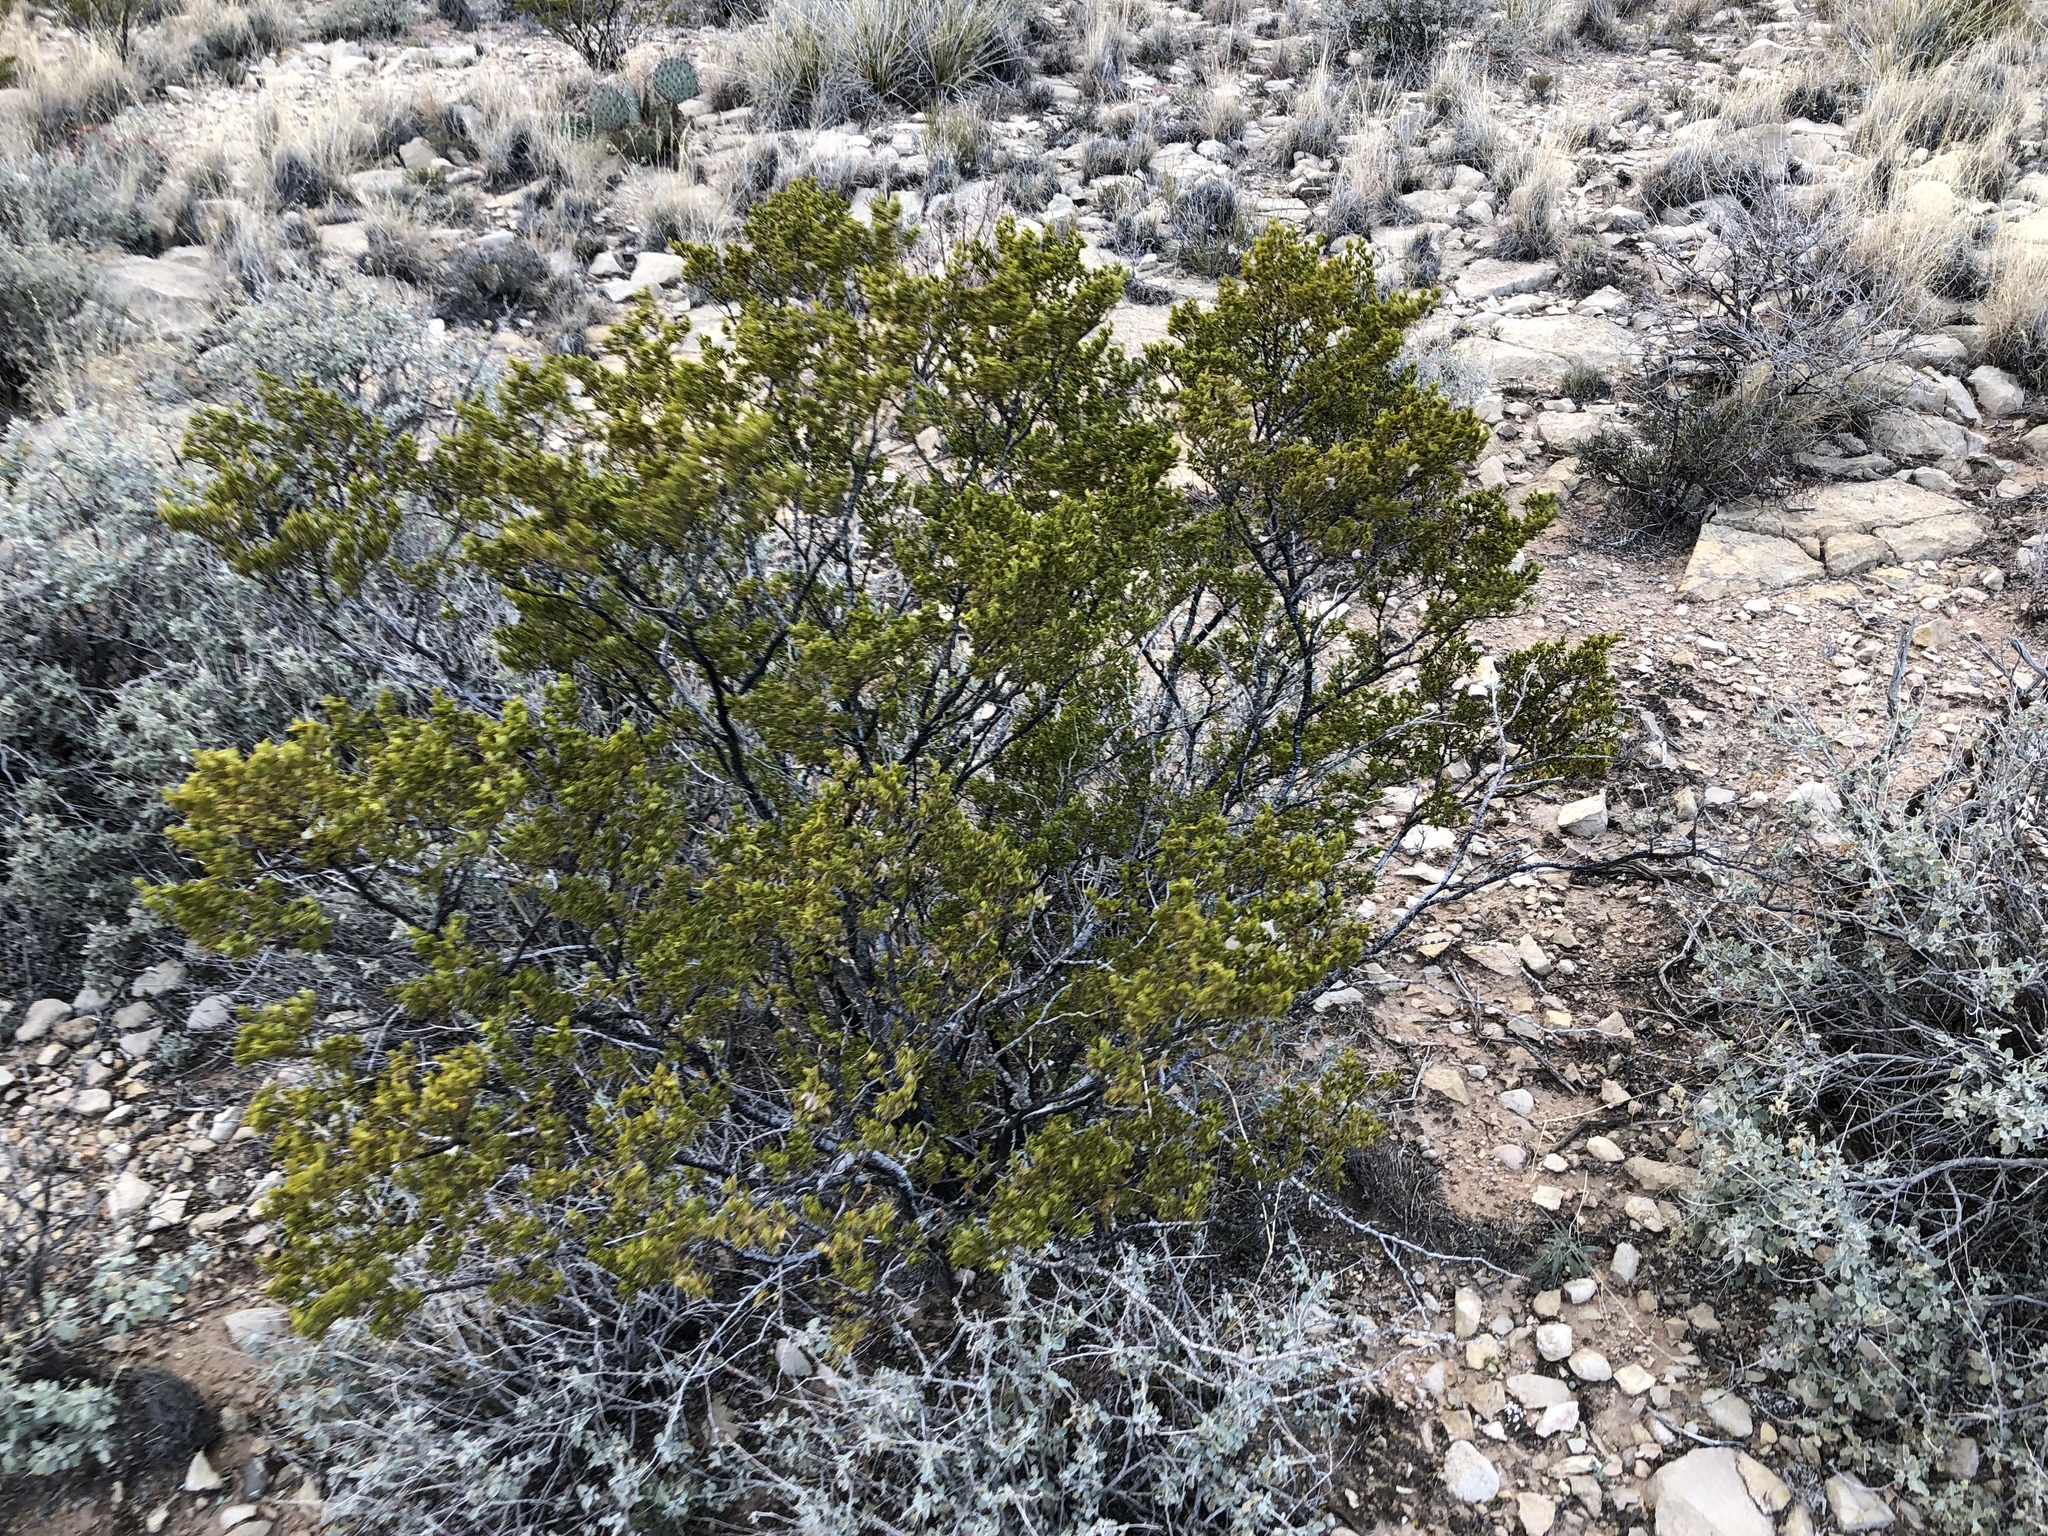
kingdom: Plantae
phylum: Tracheophyta
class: Magnoliopsida
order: Zygophyllales
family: Zygophyllaceae
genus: Larrea
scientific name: Larrea tridentata
